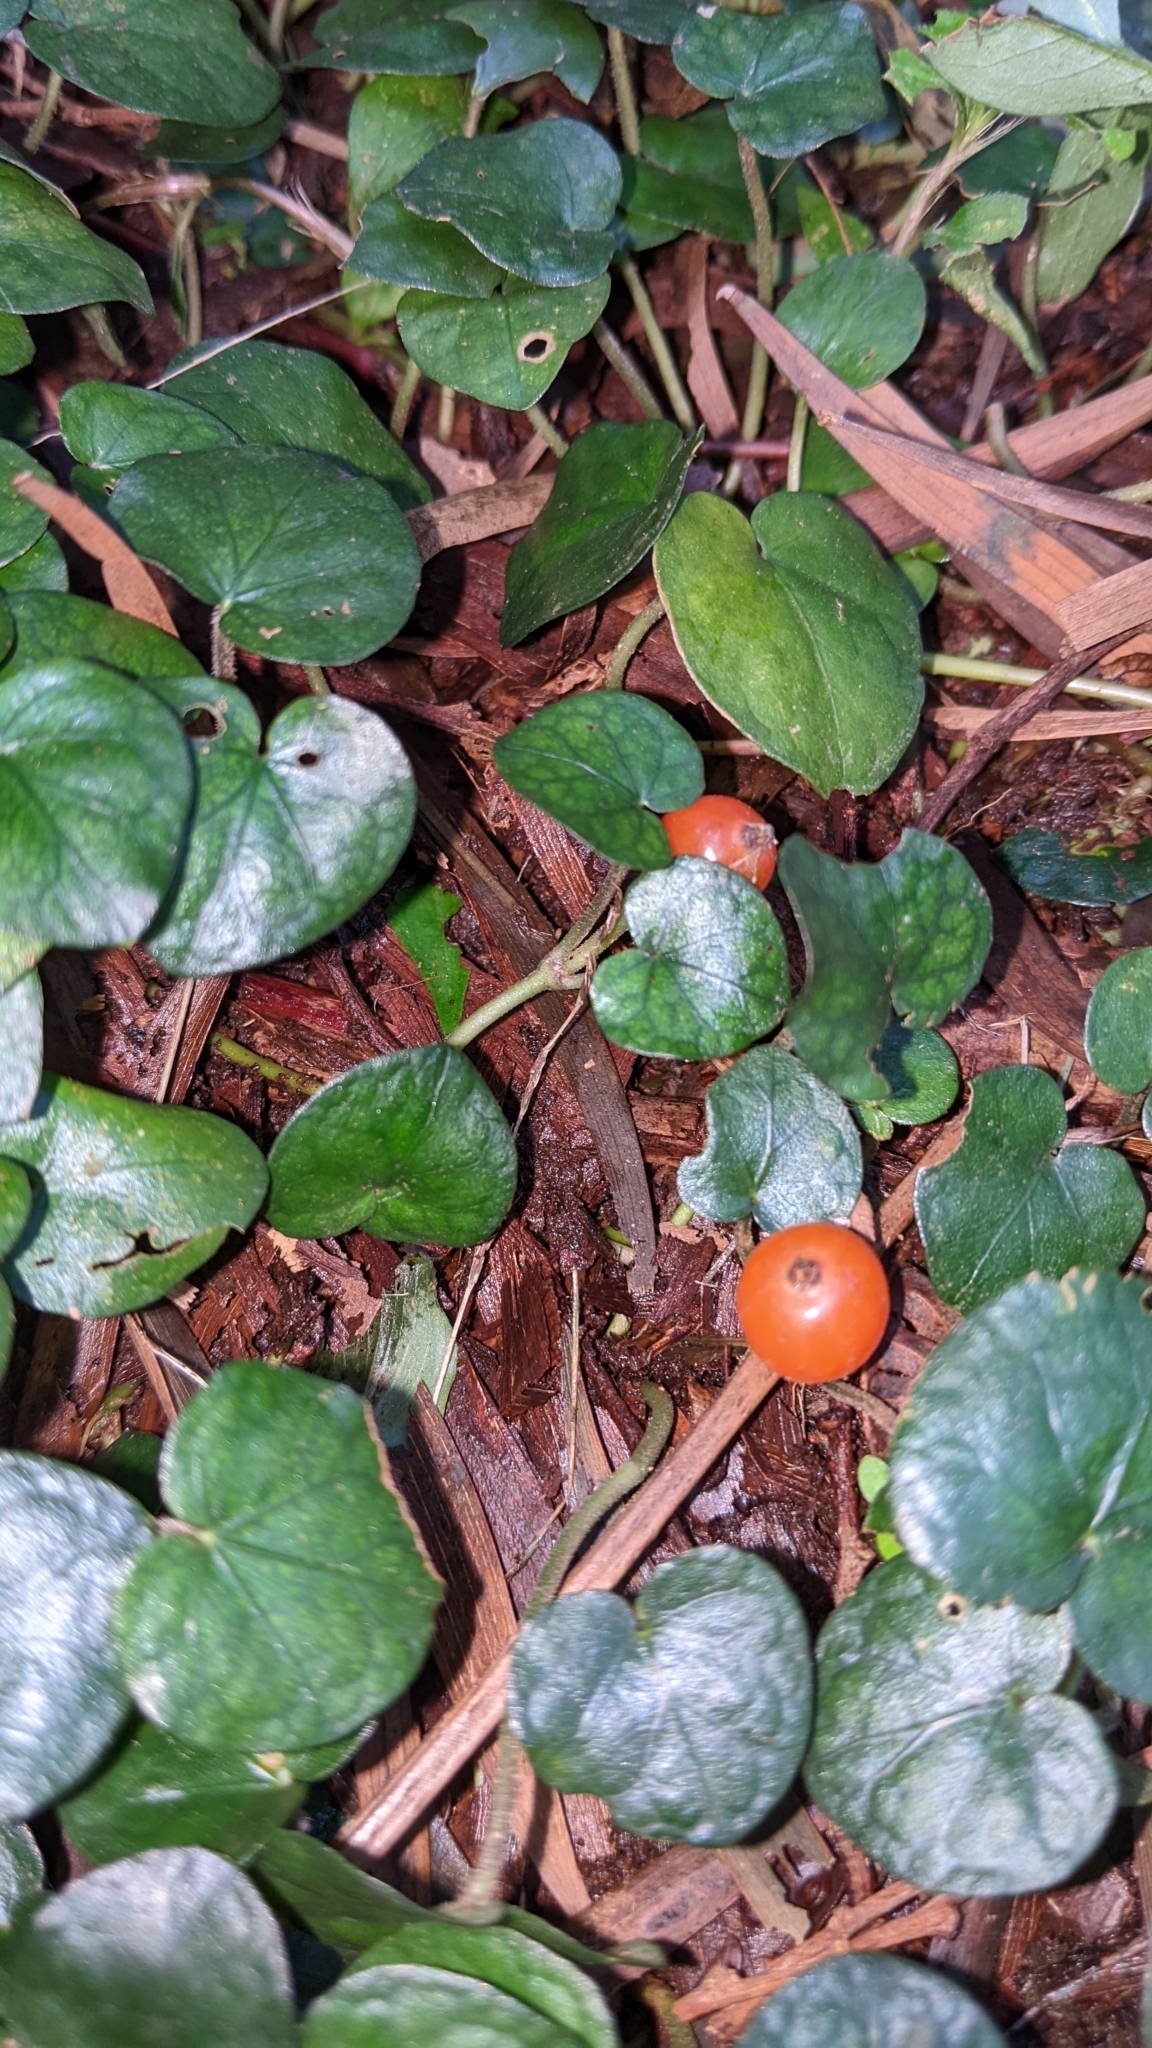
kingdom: Plantae
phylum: Tracheophyta
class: Magnoliopsida
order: Gentianales
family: Rubiaceae
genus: Geophila
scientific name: Geophila herbacea
